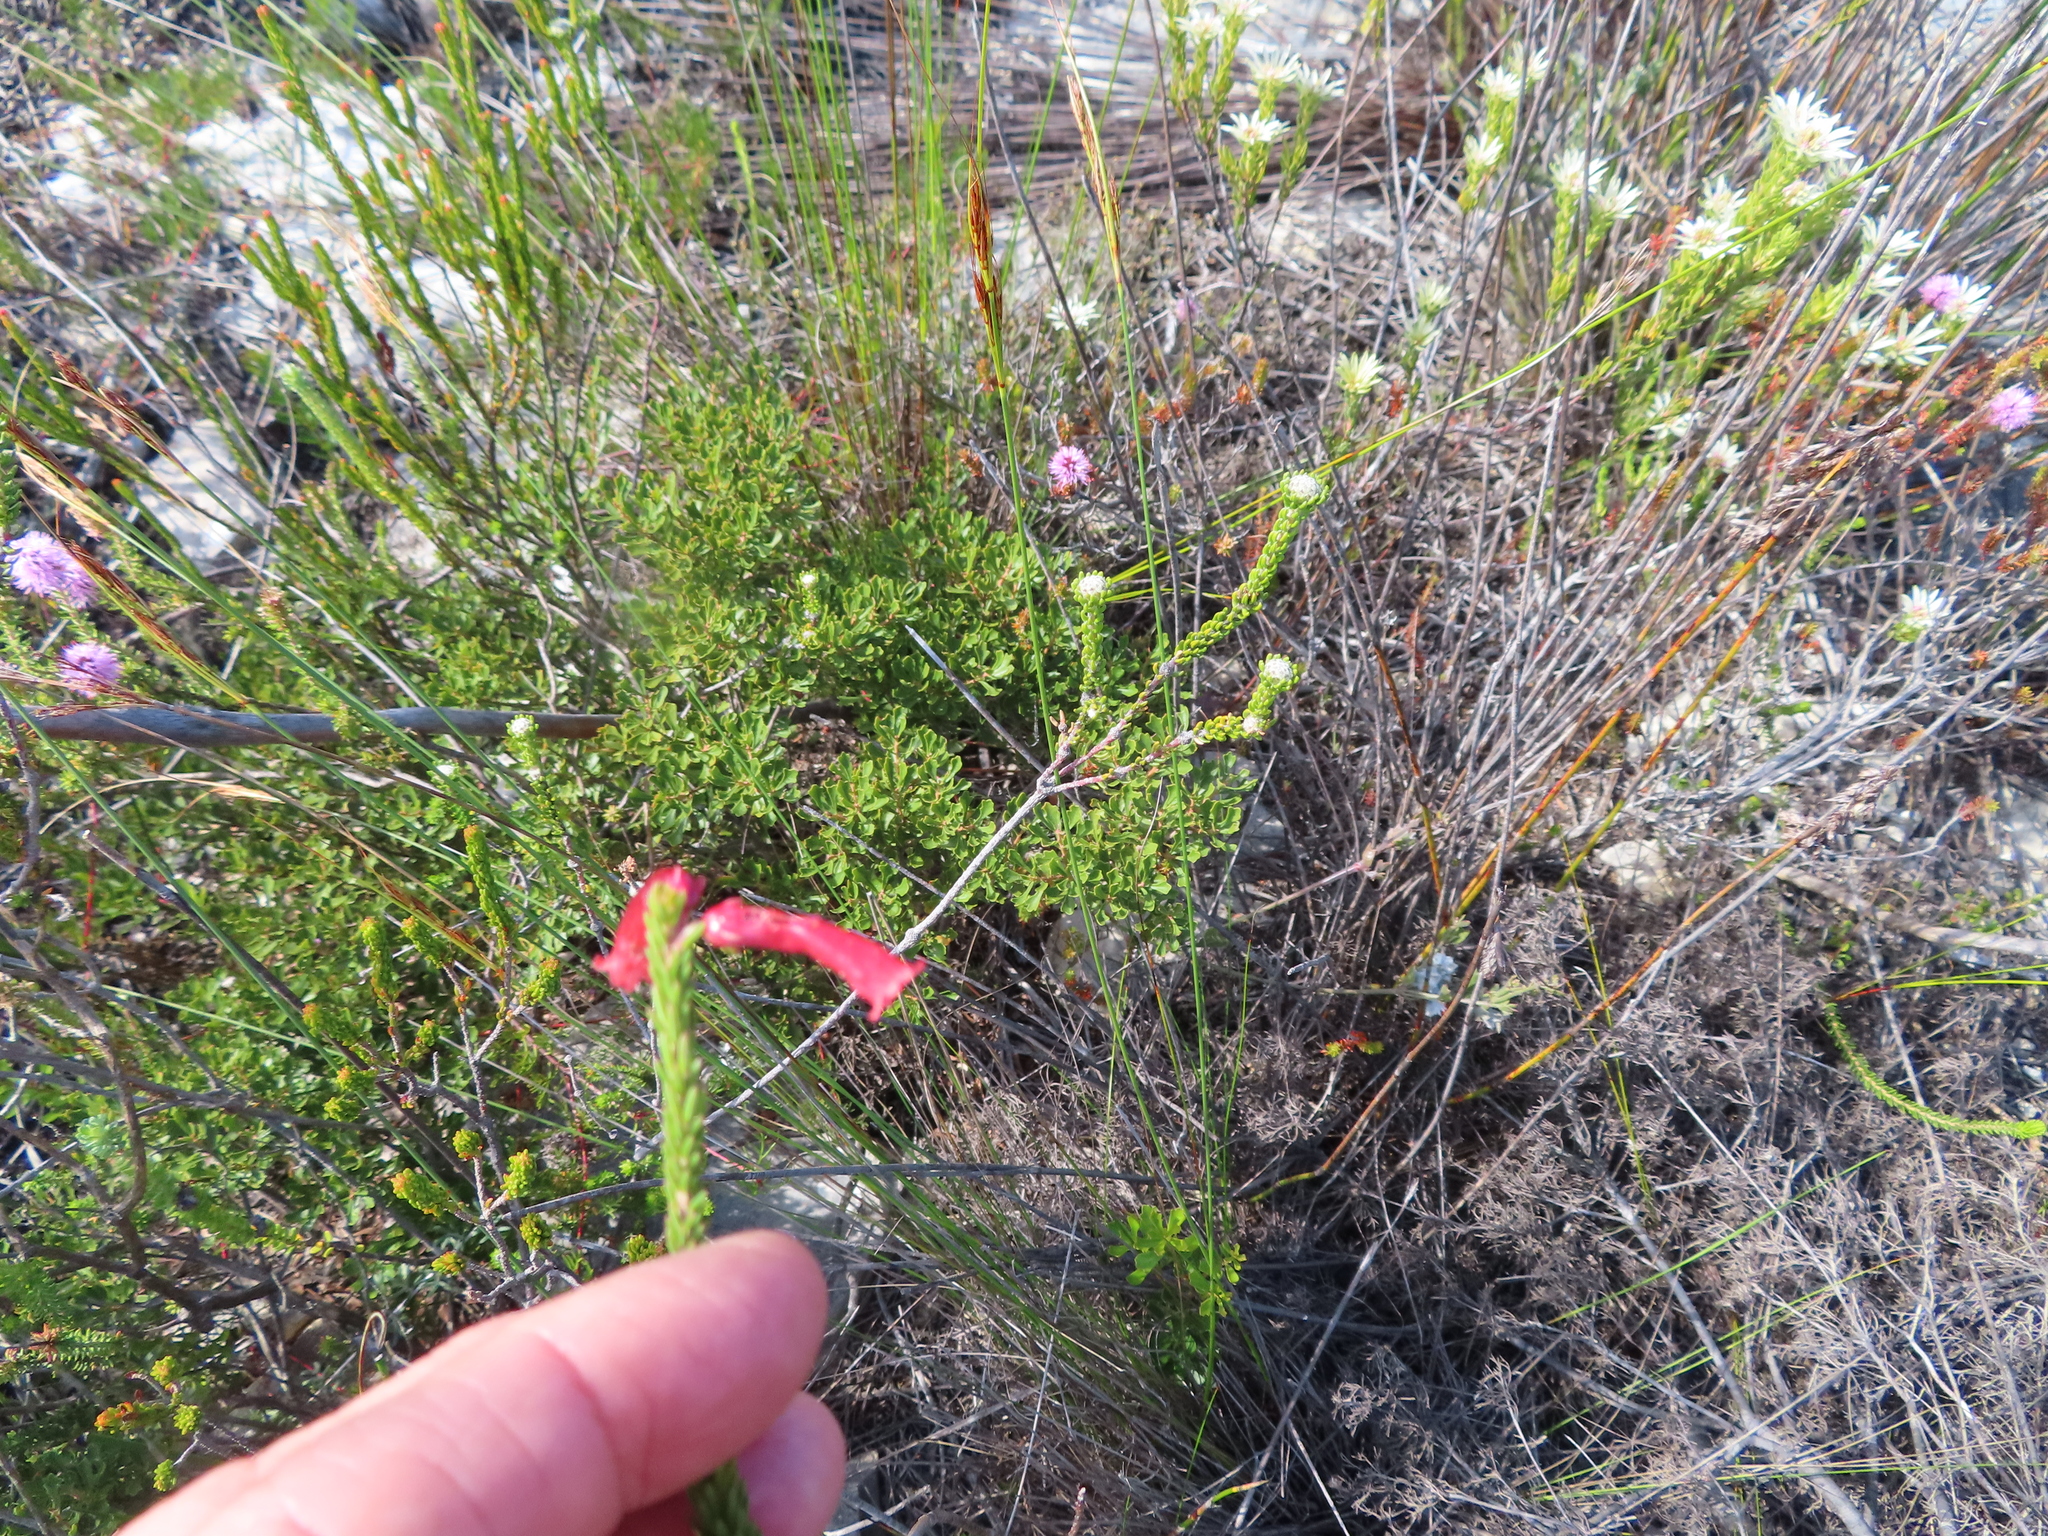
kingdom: Plantae
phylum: Tracheophyta
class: Magnoliopsida
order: Ericales
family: Ericaceae
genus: Erica
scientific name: Erica regia
